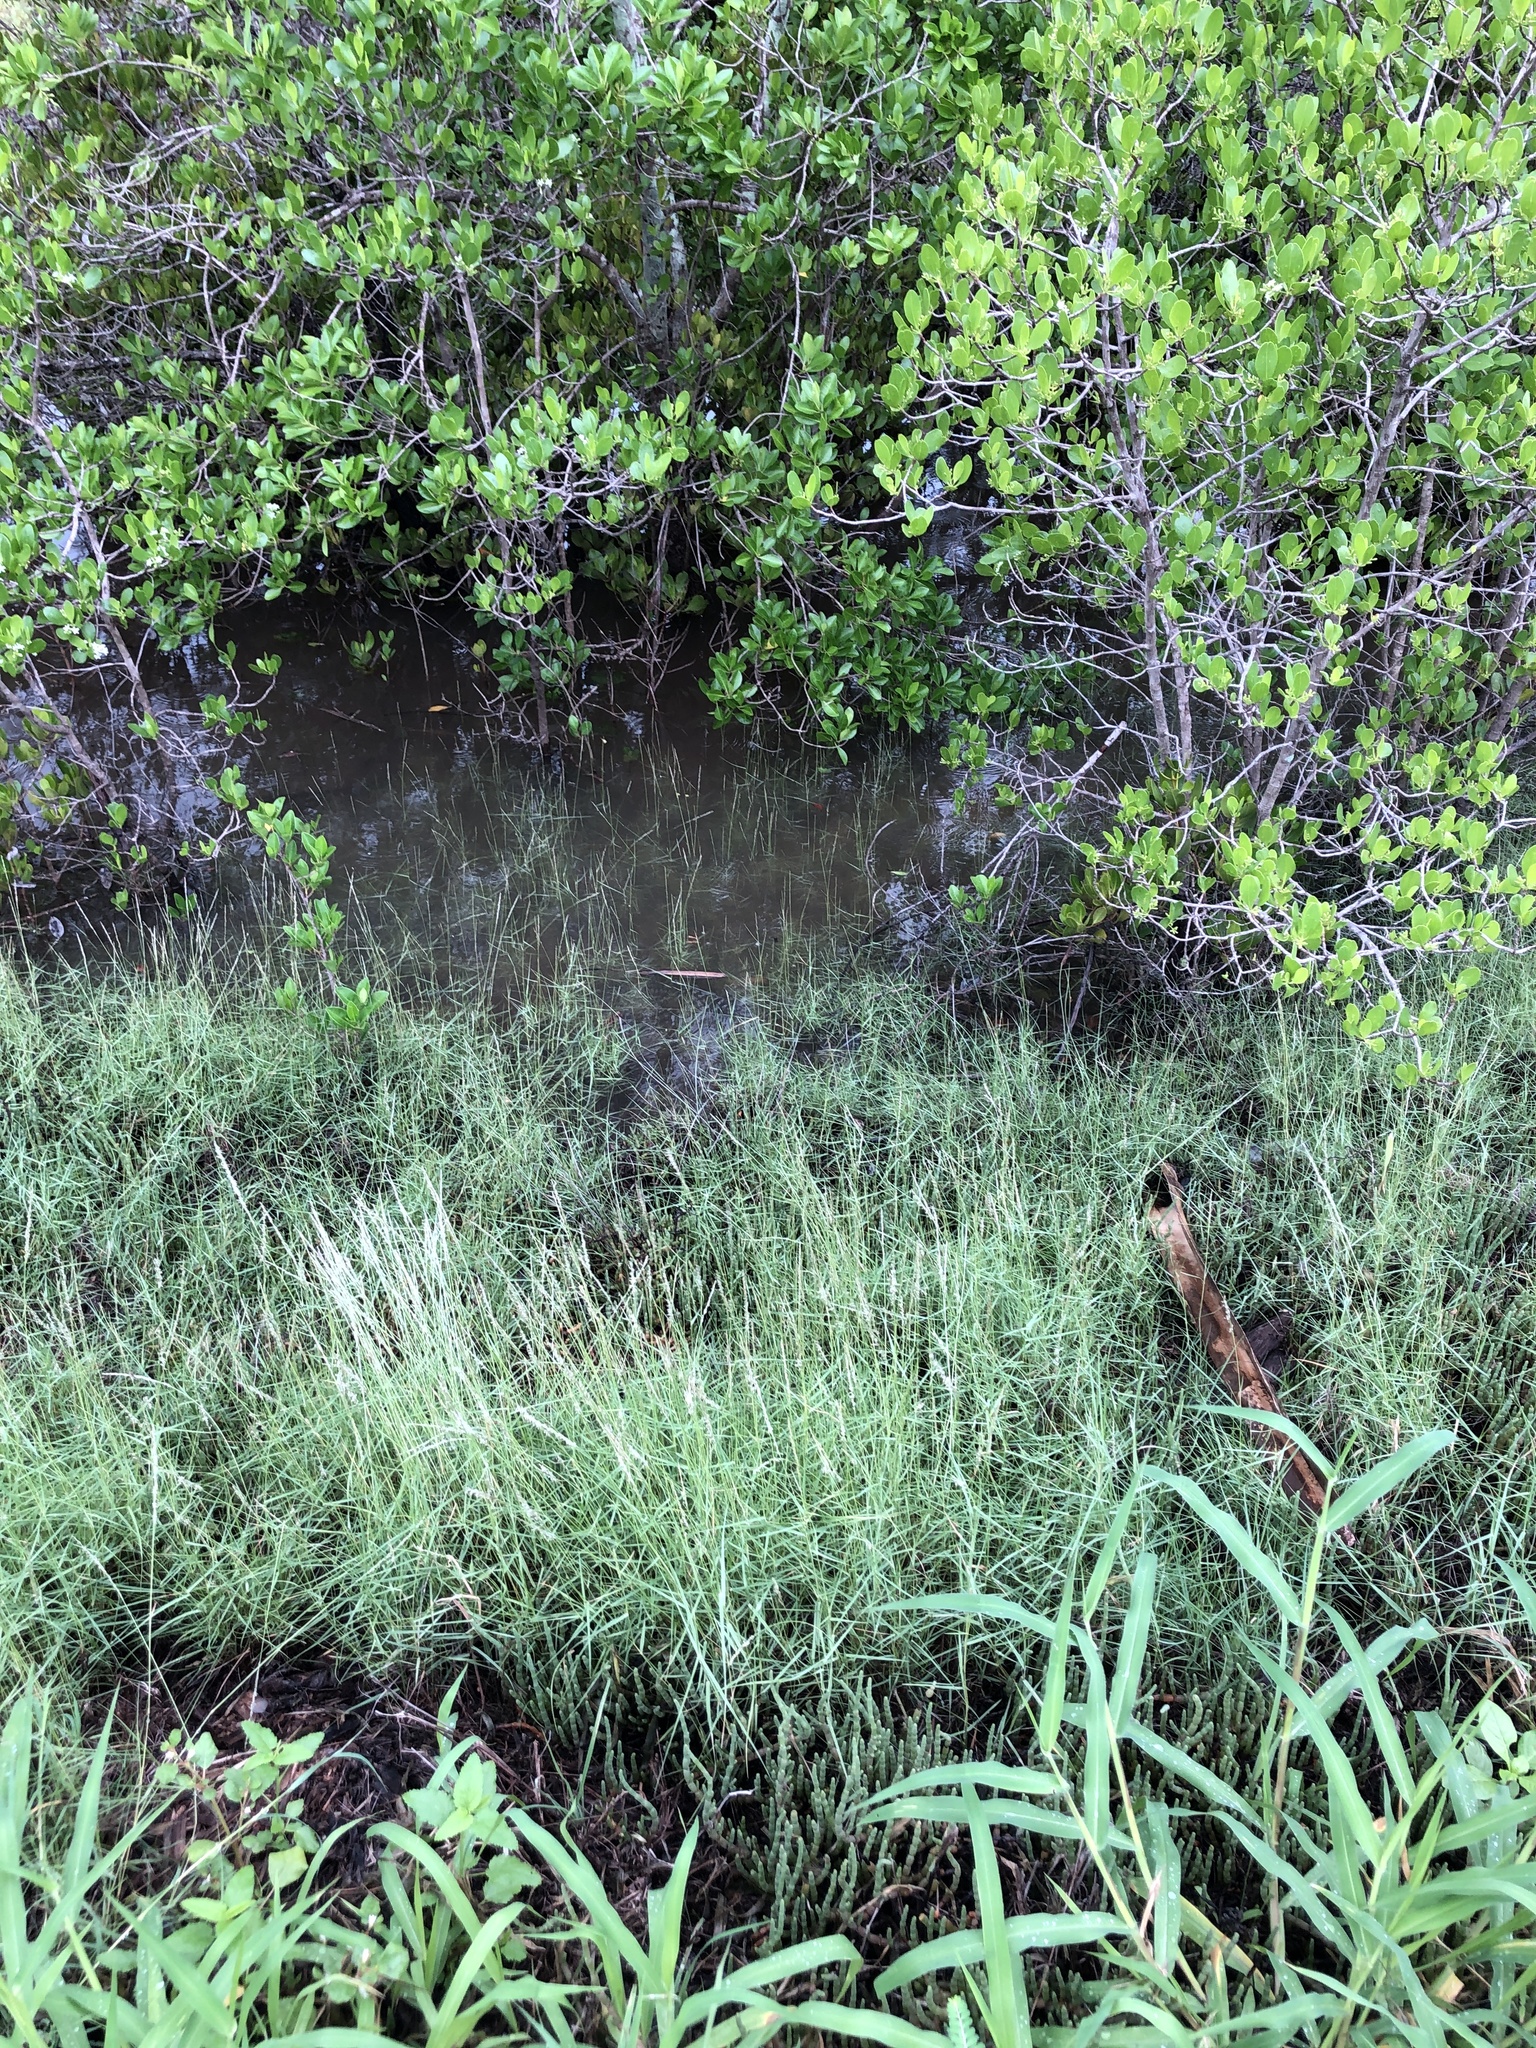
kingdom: Plantae
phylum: Tracheophyta
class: Liliopsida
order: Poales
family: Poaceae
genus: Sporobolus
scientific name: Sporobolus virginicus
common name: Beach dropseed
